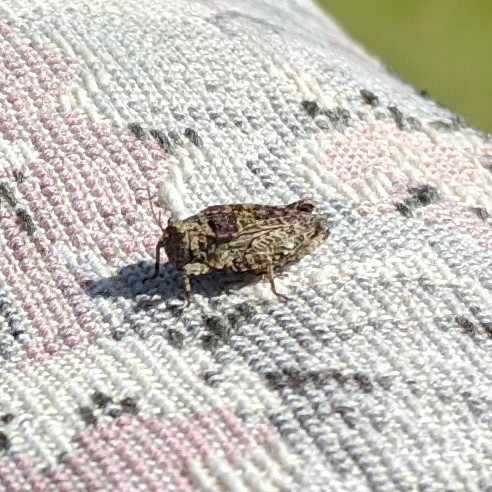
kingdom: Animalia
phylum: Arthropoda
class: Insecta
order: Orthoptera
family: Tetrigidae
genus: Tetrix
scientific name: Tetrix tenuicornis
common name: Long-horned groundhopper
